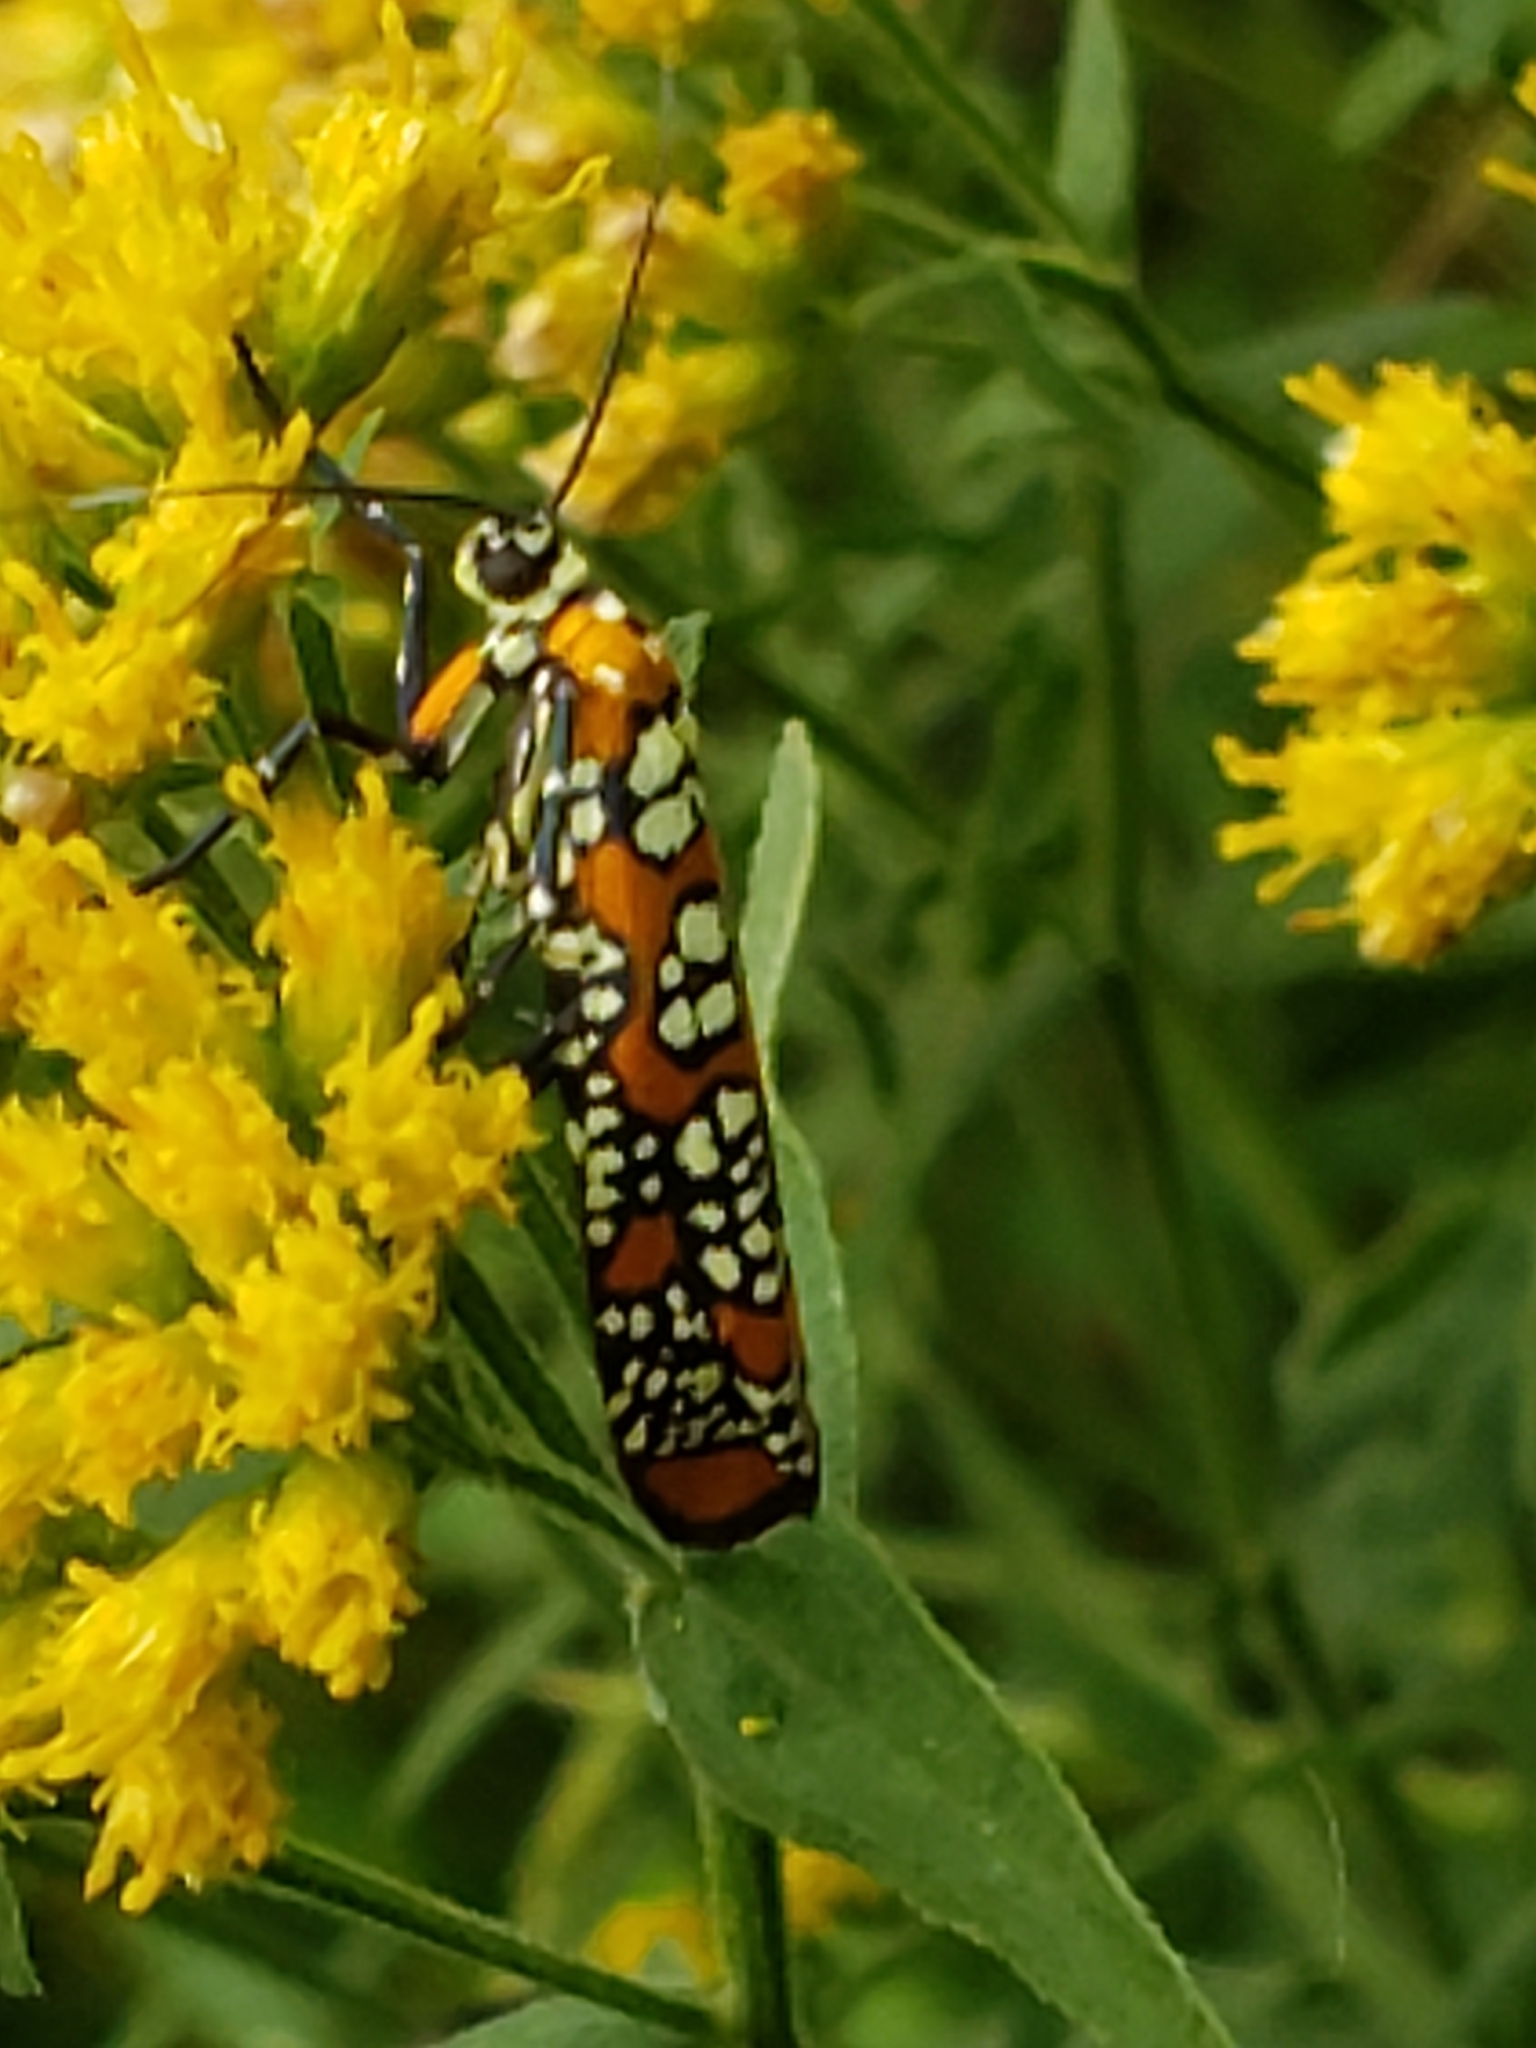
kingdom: Animalia
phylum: Arthropoda
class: Insecta
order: Lepidoptera
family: Attevidae
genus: Atteva
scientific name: Atteva punctella
